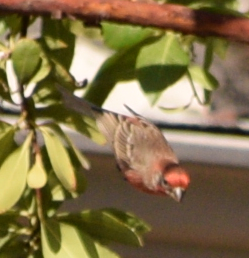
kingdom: Animalia
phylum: Chordata
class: Aves
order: Passeriformes
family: Fringillidae
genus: Haemorhous
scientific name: Haemorhous mexicanus
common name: House finch
